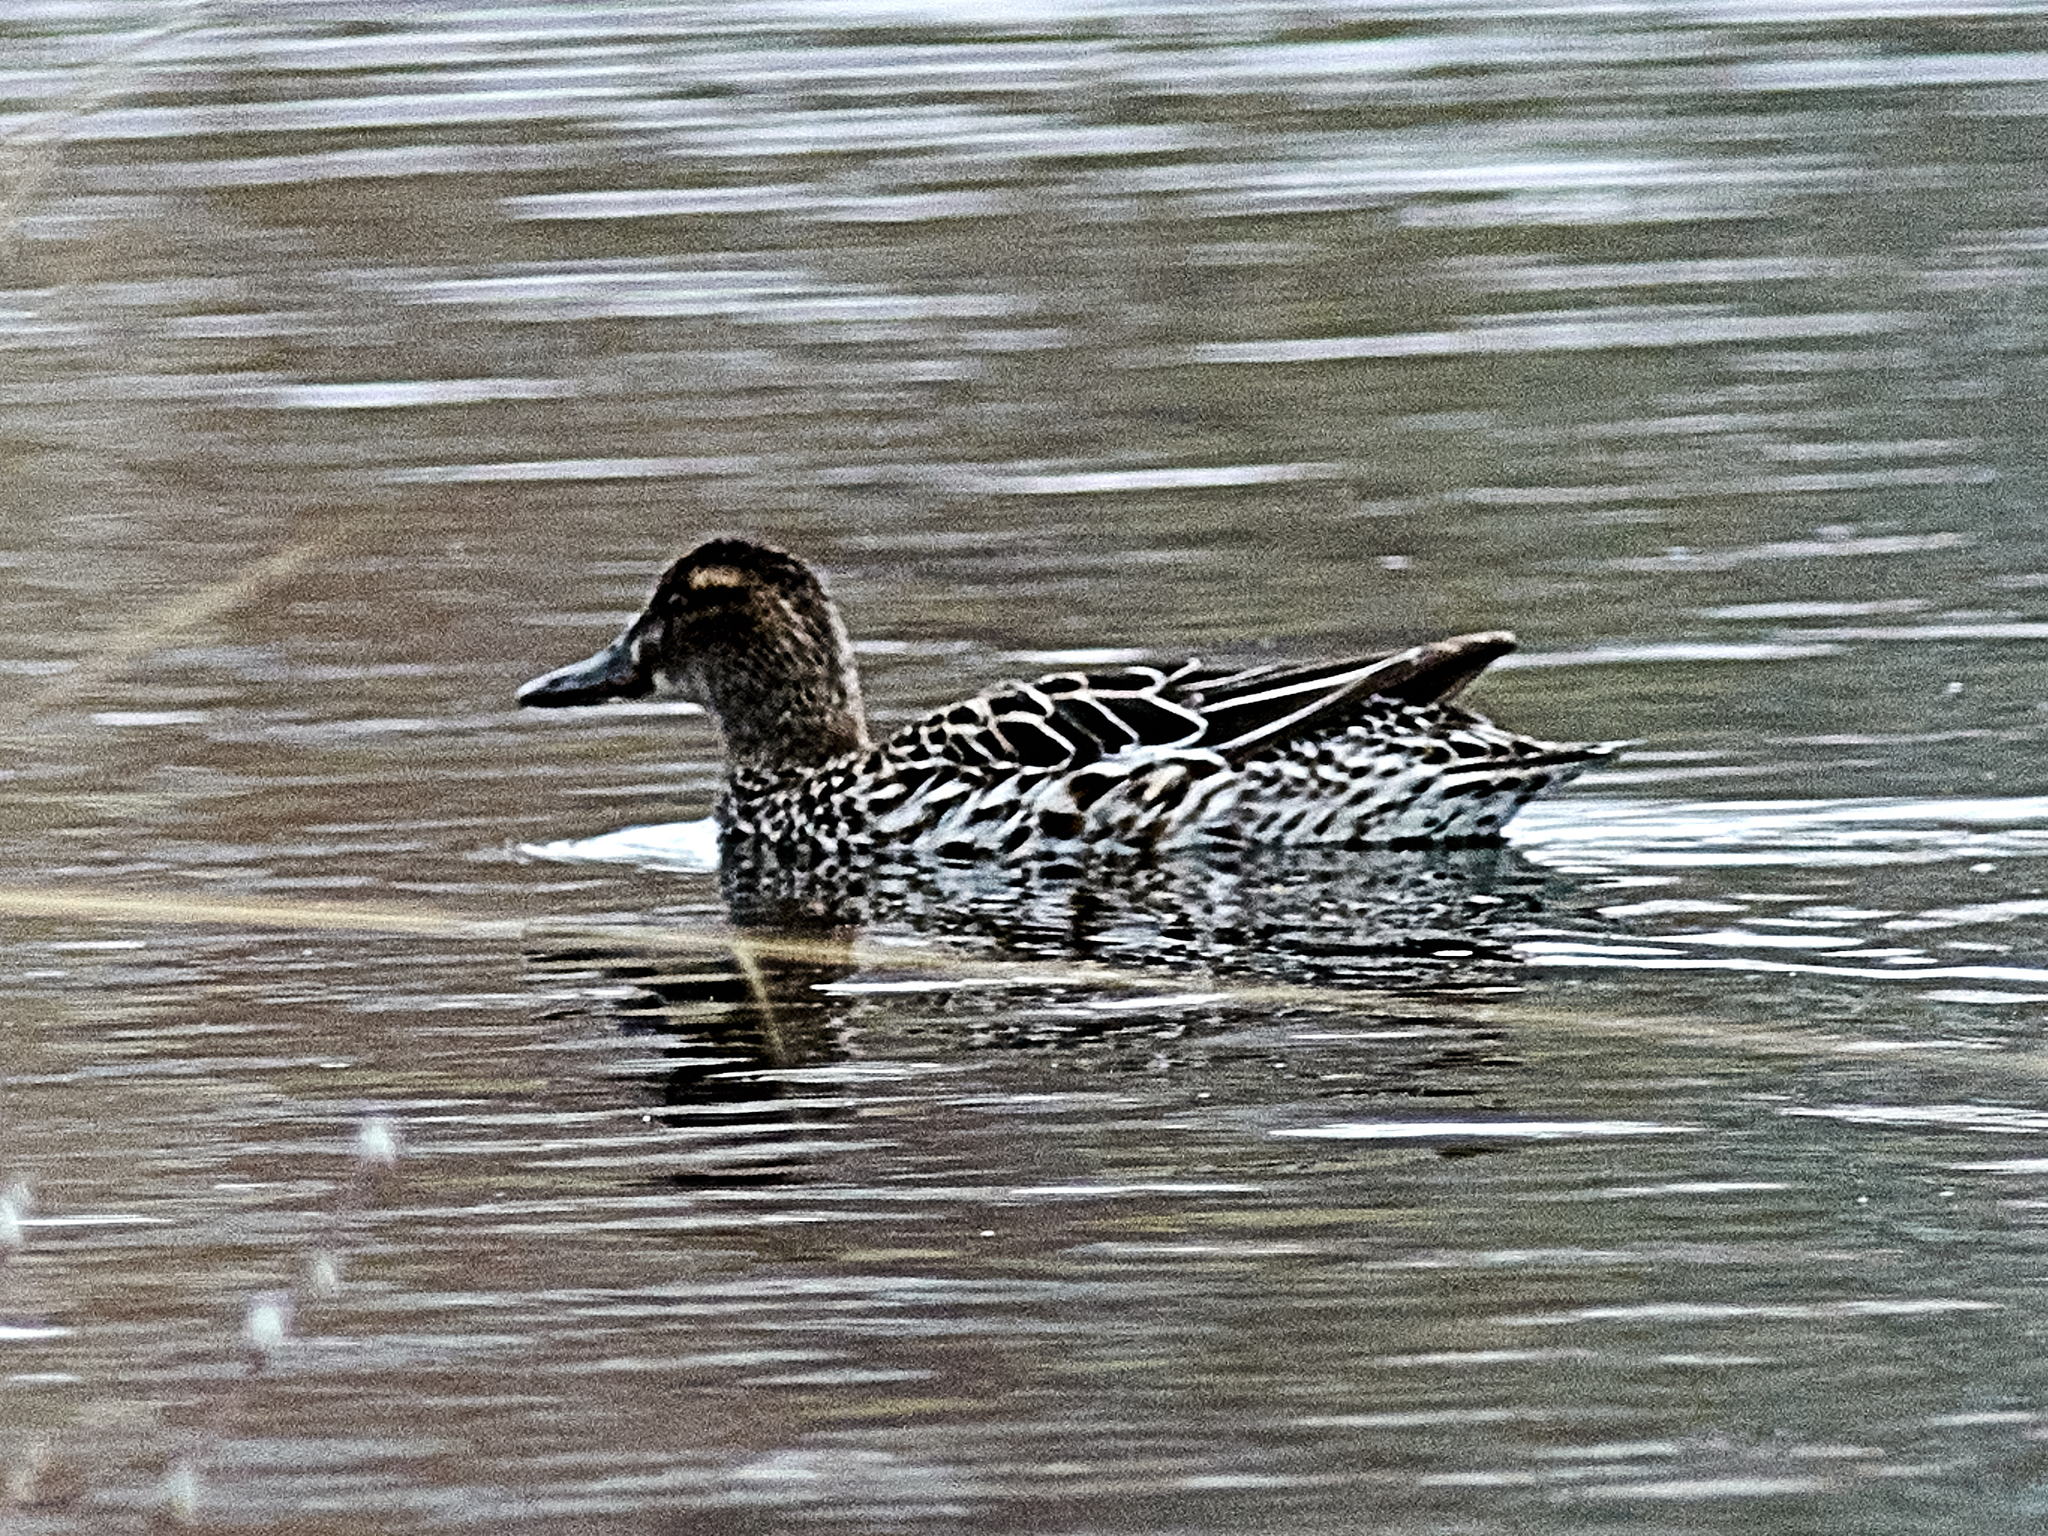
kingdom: Animalia
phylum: Chordata
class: Aves
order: Anseriformes
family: Anatidae
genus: Spatula
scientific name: Spatula querquedula
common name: Garganey
